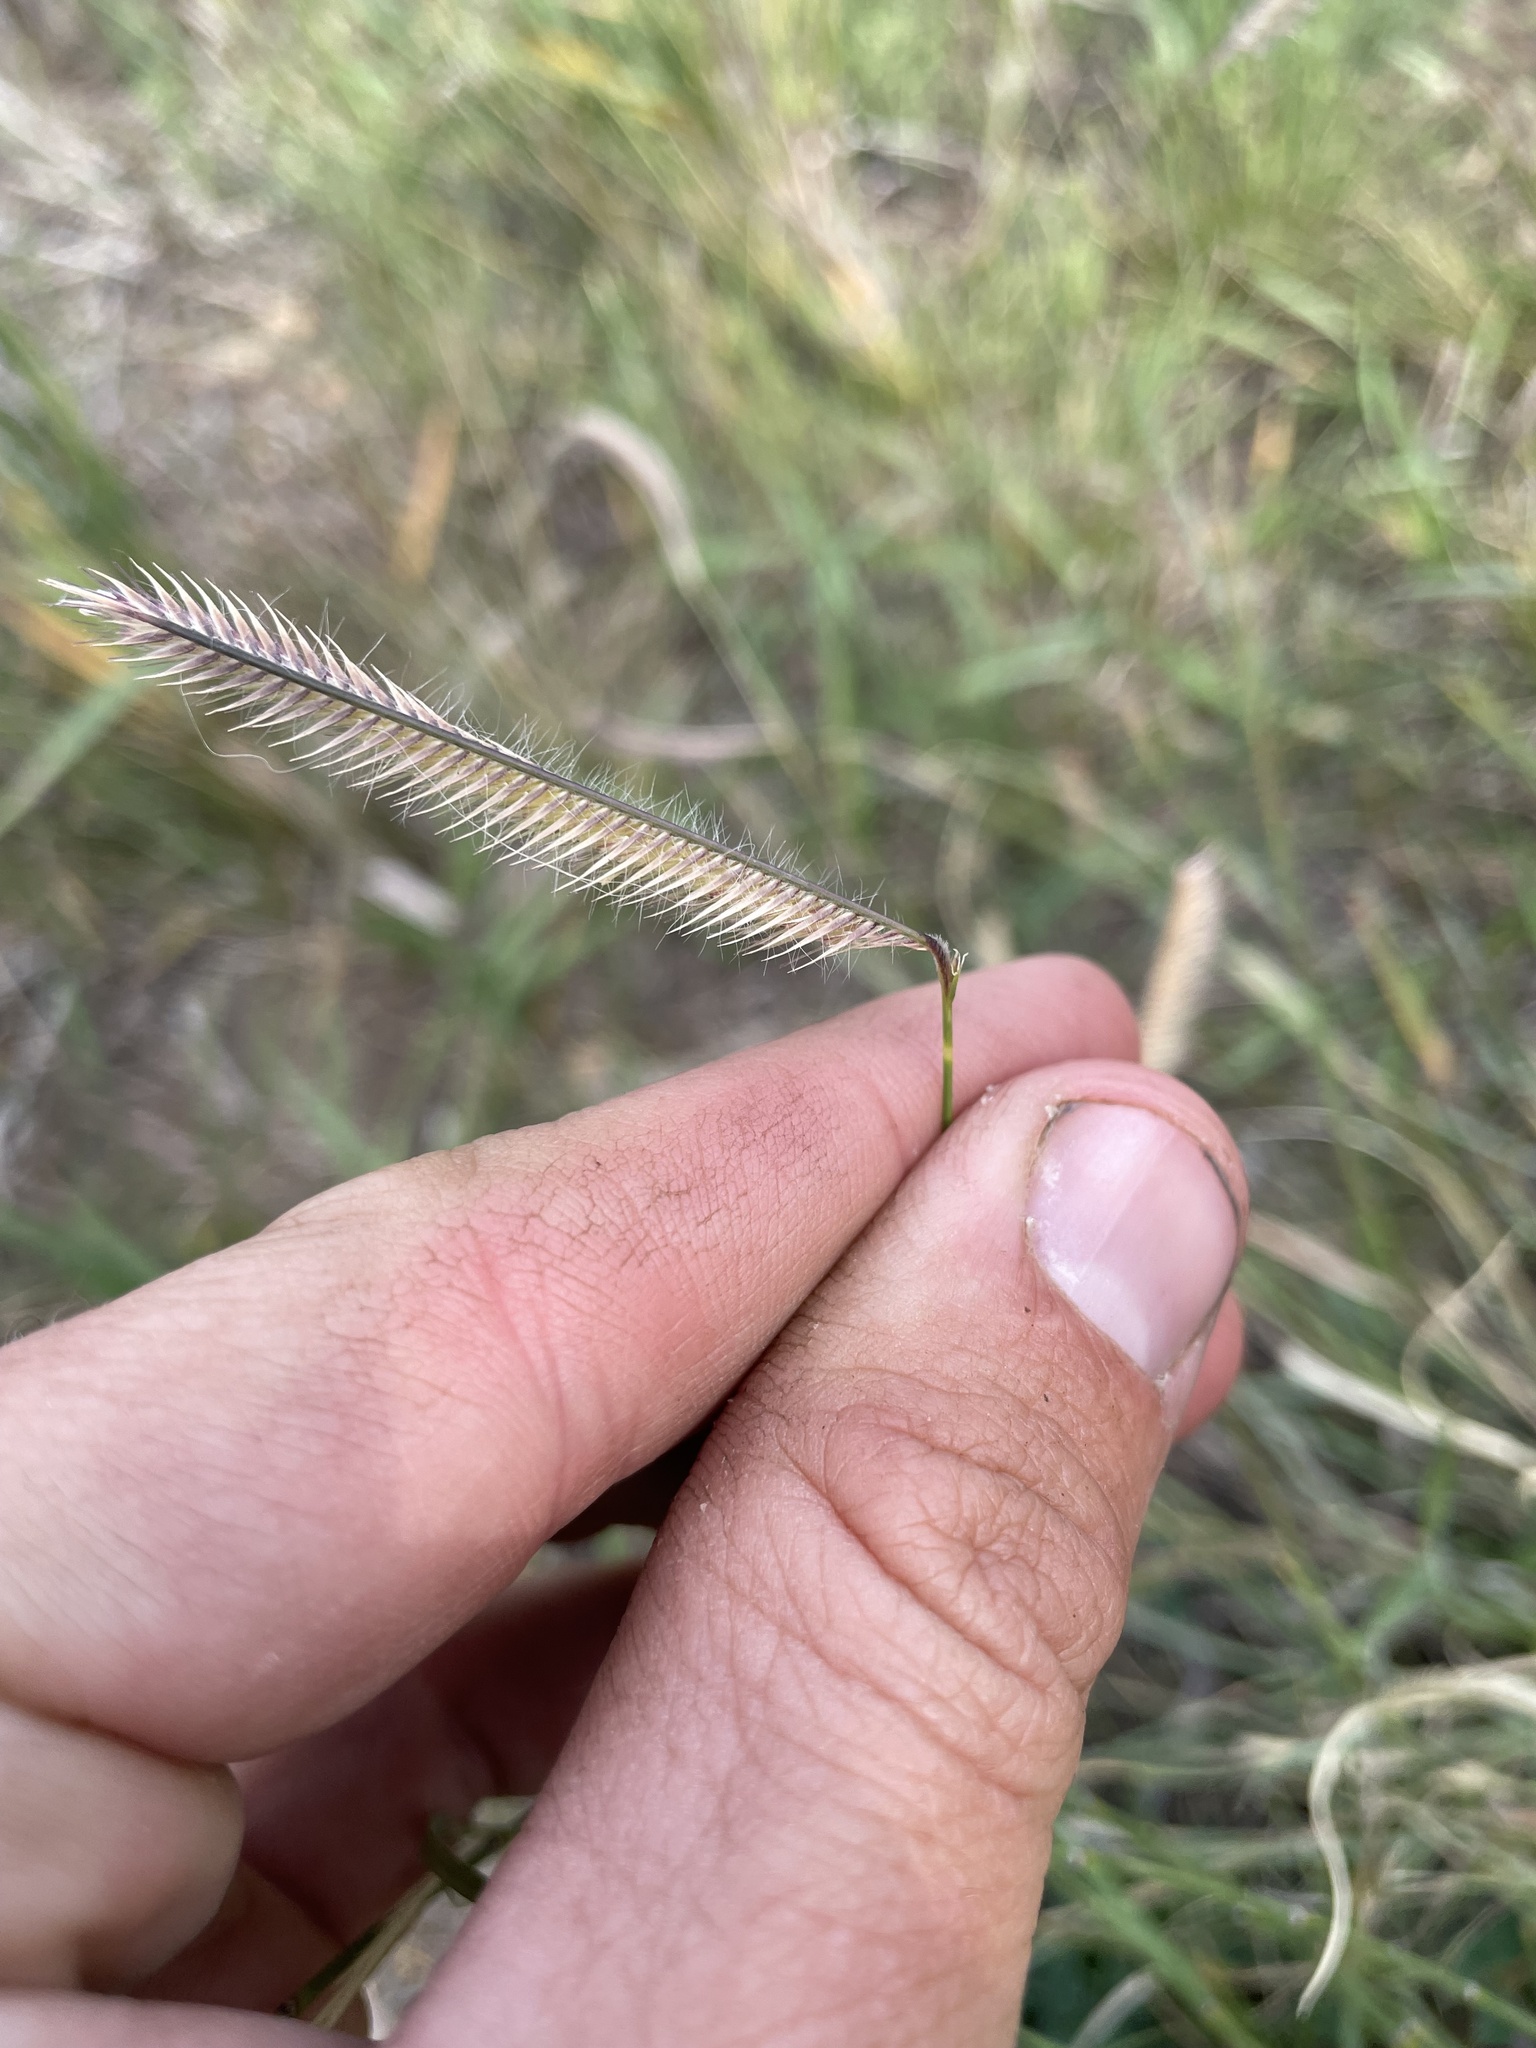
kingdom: Plantae
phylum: Tracheophyta
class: Liliopsida
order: Poales
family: Poaceae
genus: Bouteloua
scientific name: Bouteloua gracilis
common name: Blue grama
